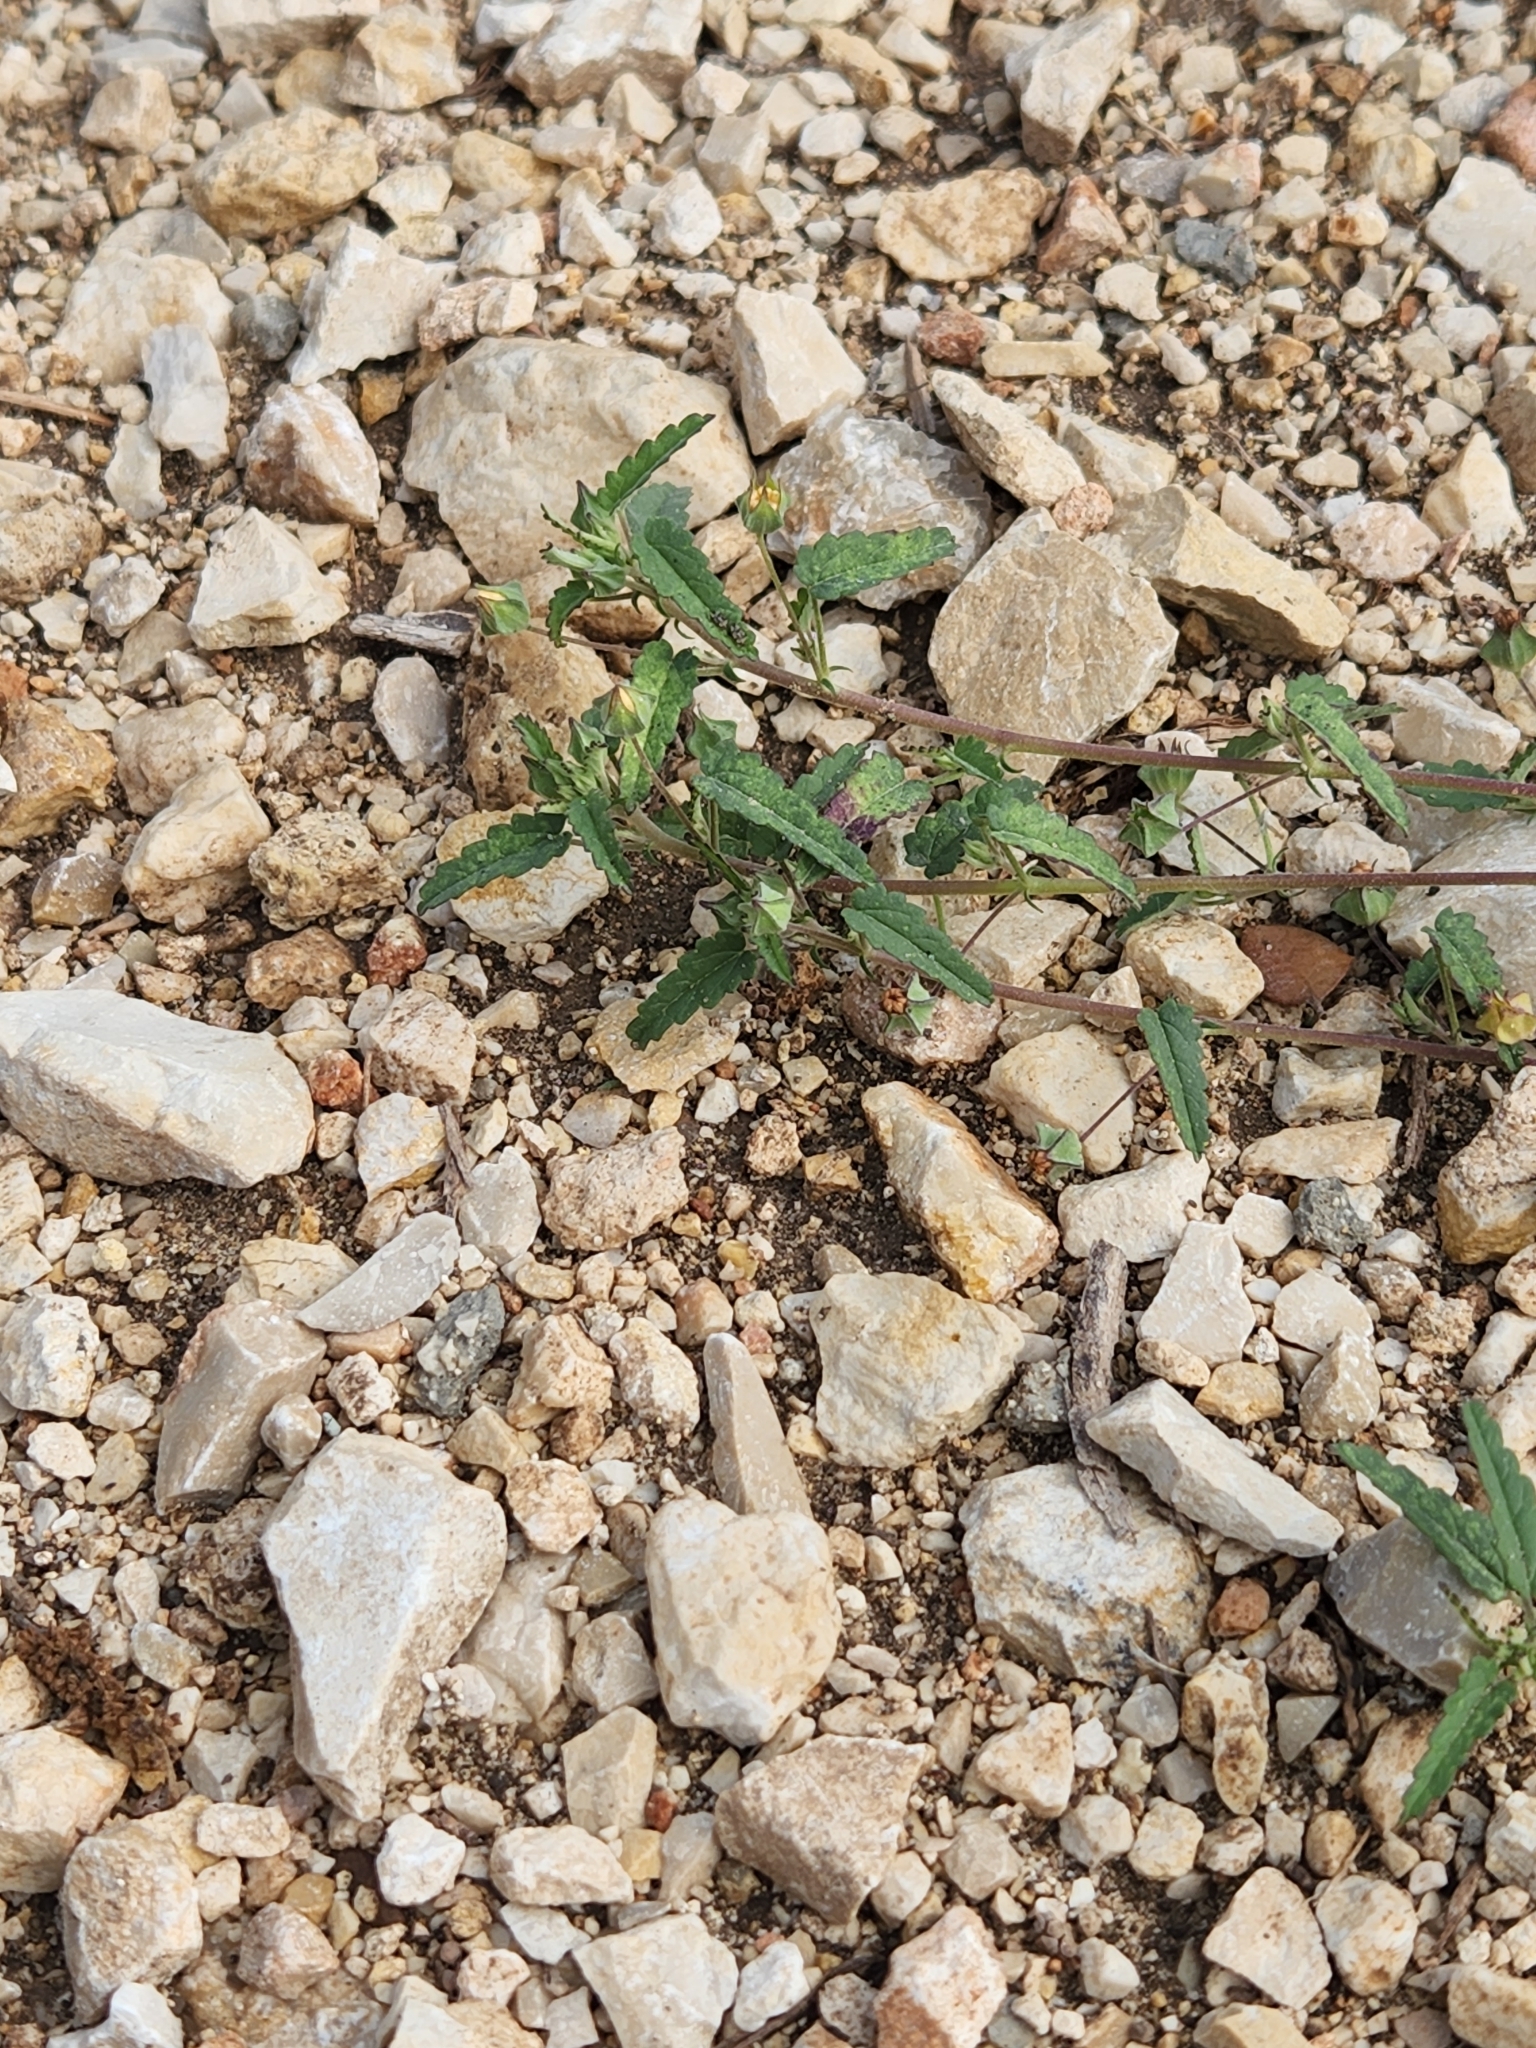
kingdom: Plantae
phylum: Tracheophyta
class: Magnoliopsida
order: Malpighiales
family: Euphorbiaceae
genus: Tragia
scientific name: Tragia ramosa
